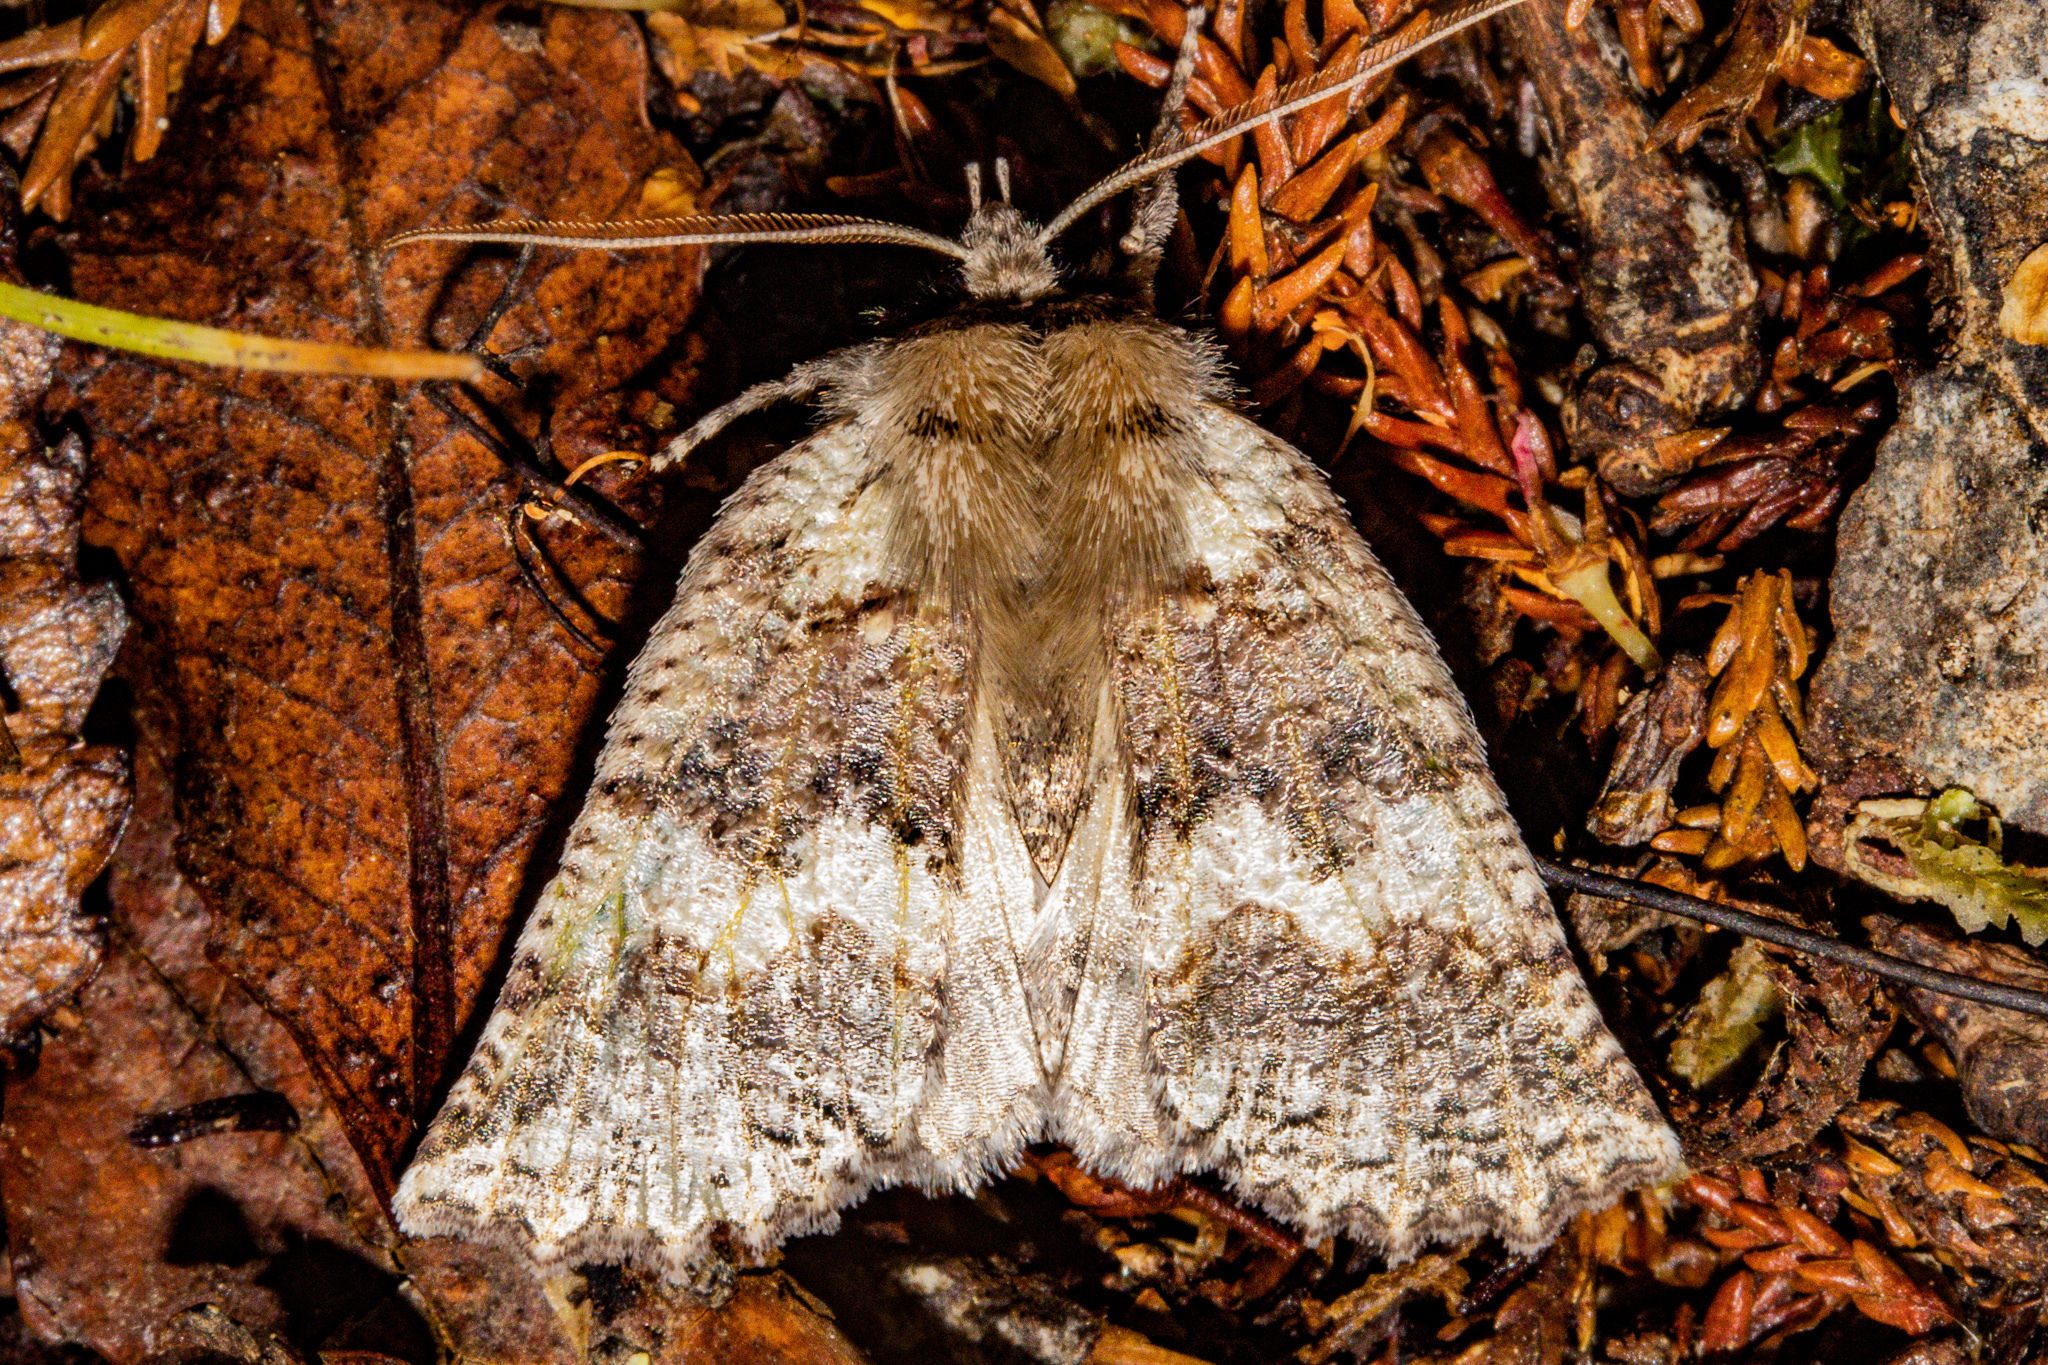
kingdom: Animalia
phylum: Arthropoda
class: Insecta
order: Lepidoptera
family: Geometridae
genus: Declana
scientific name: Declana floccosa
